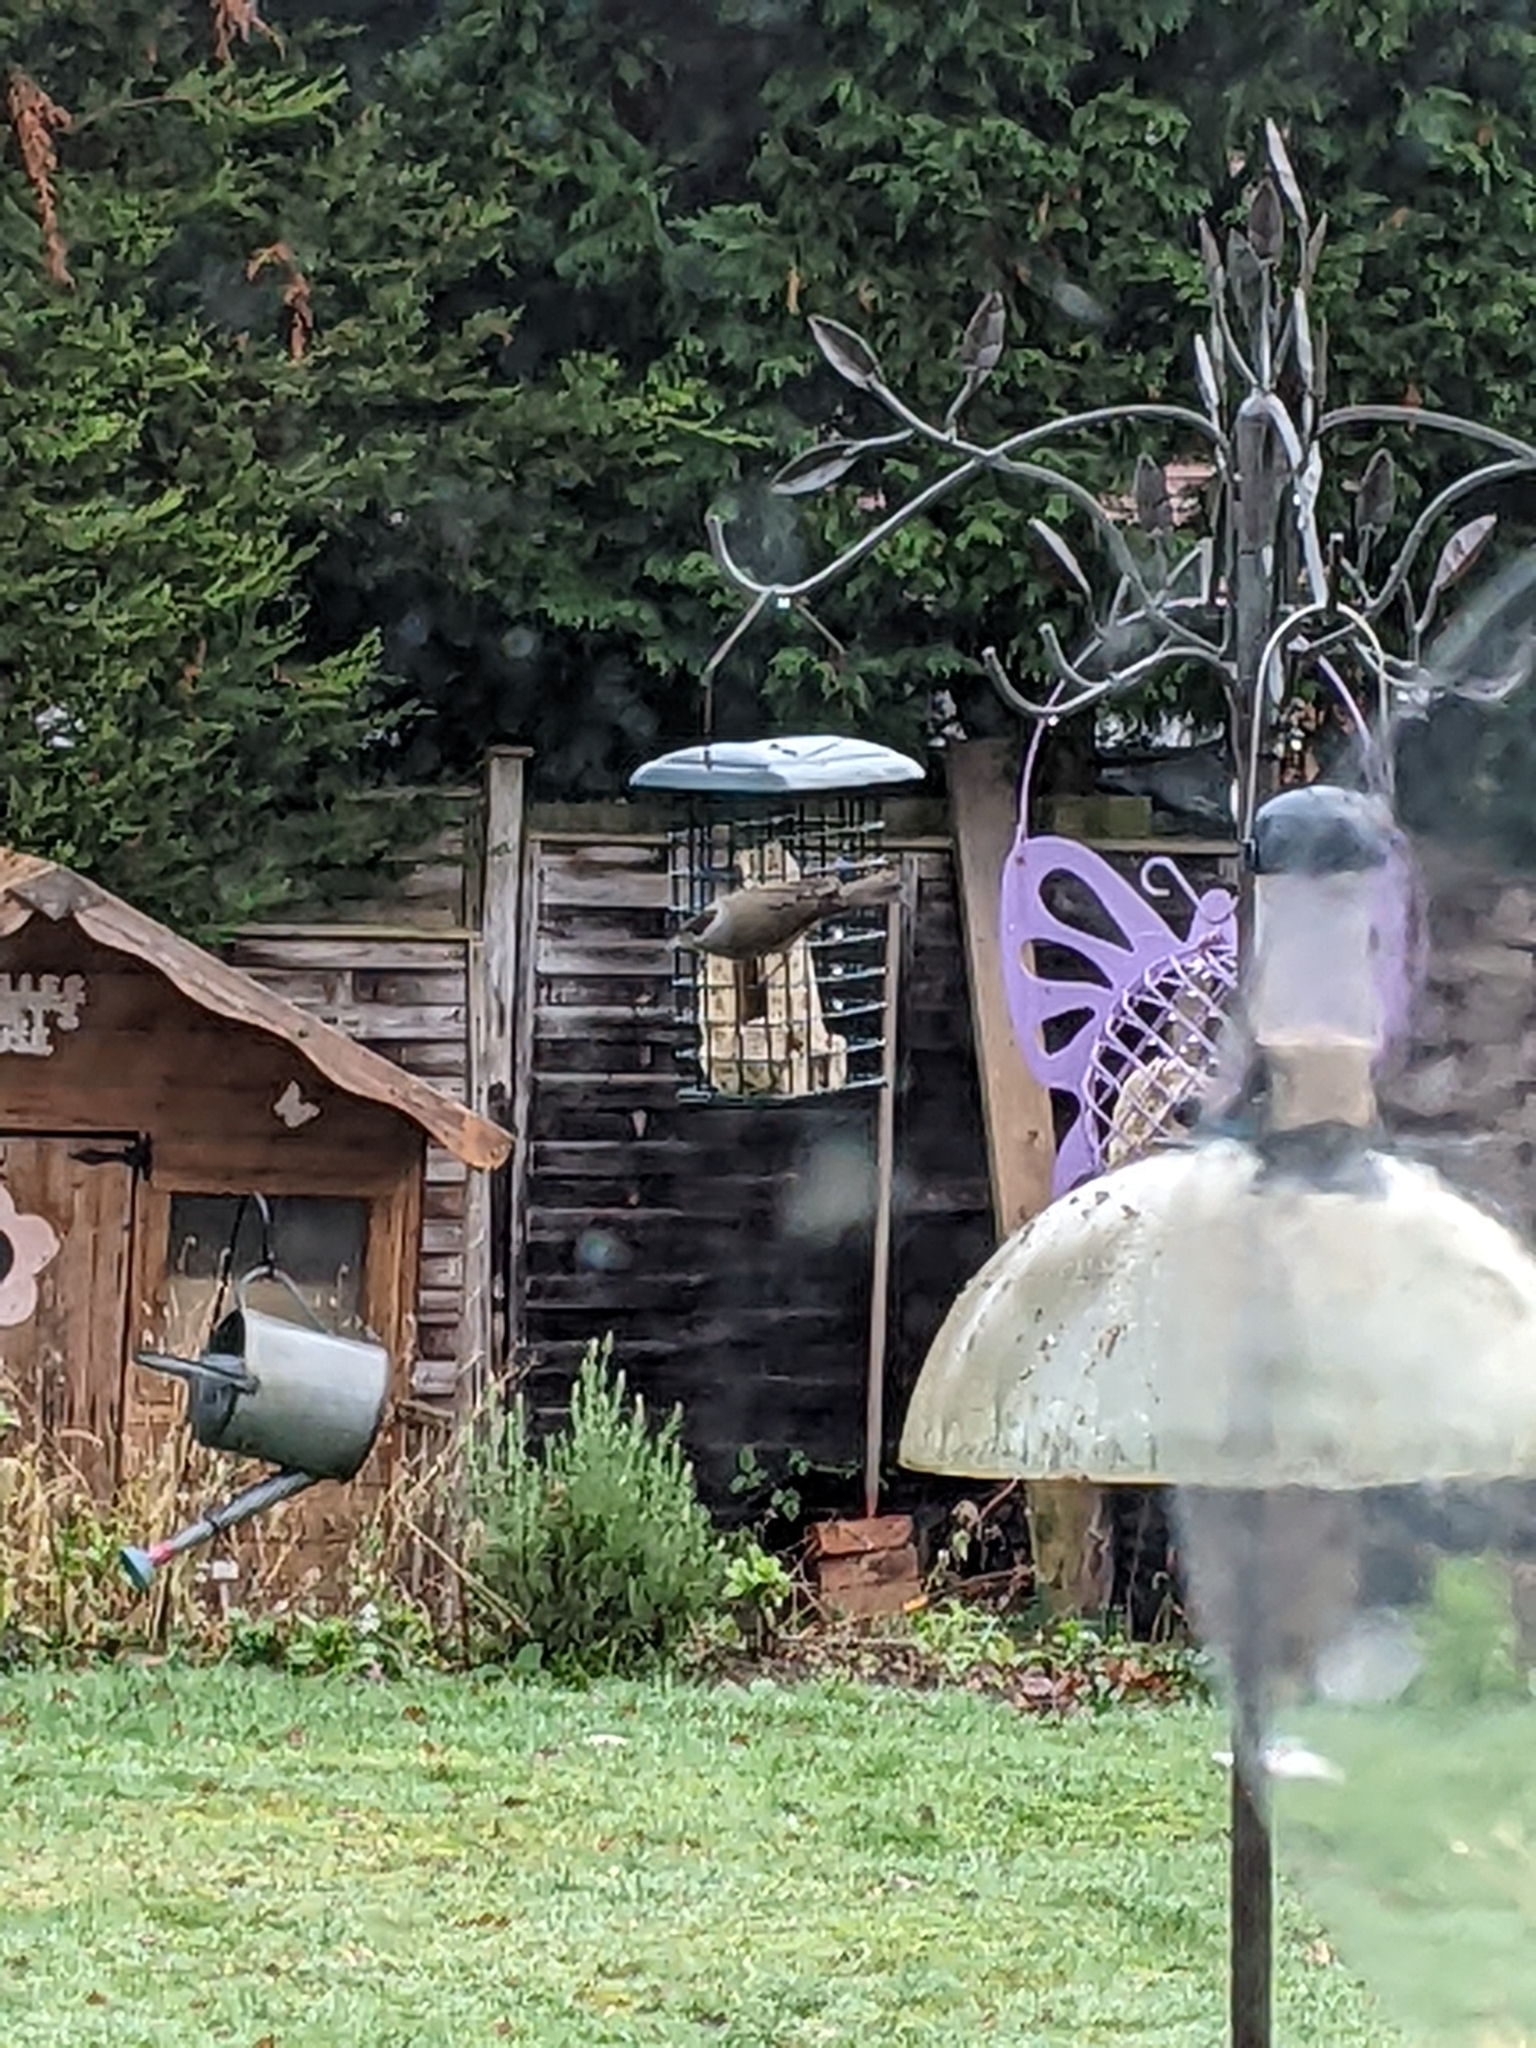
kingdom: Animalia
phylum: Chordata
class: Aves
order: Passeriformes
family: Sylviidae
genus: Sylvia
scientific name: Sylvia atricapilla
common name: Eurasian blackcap
